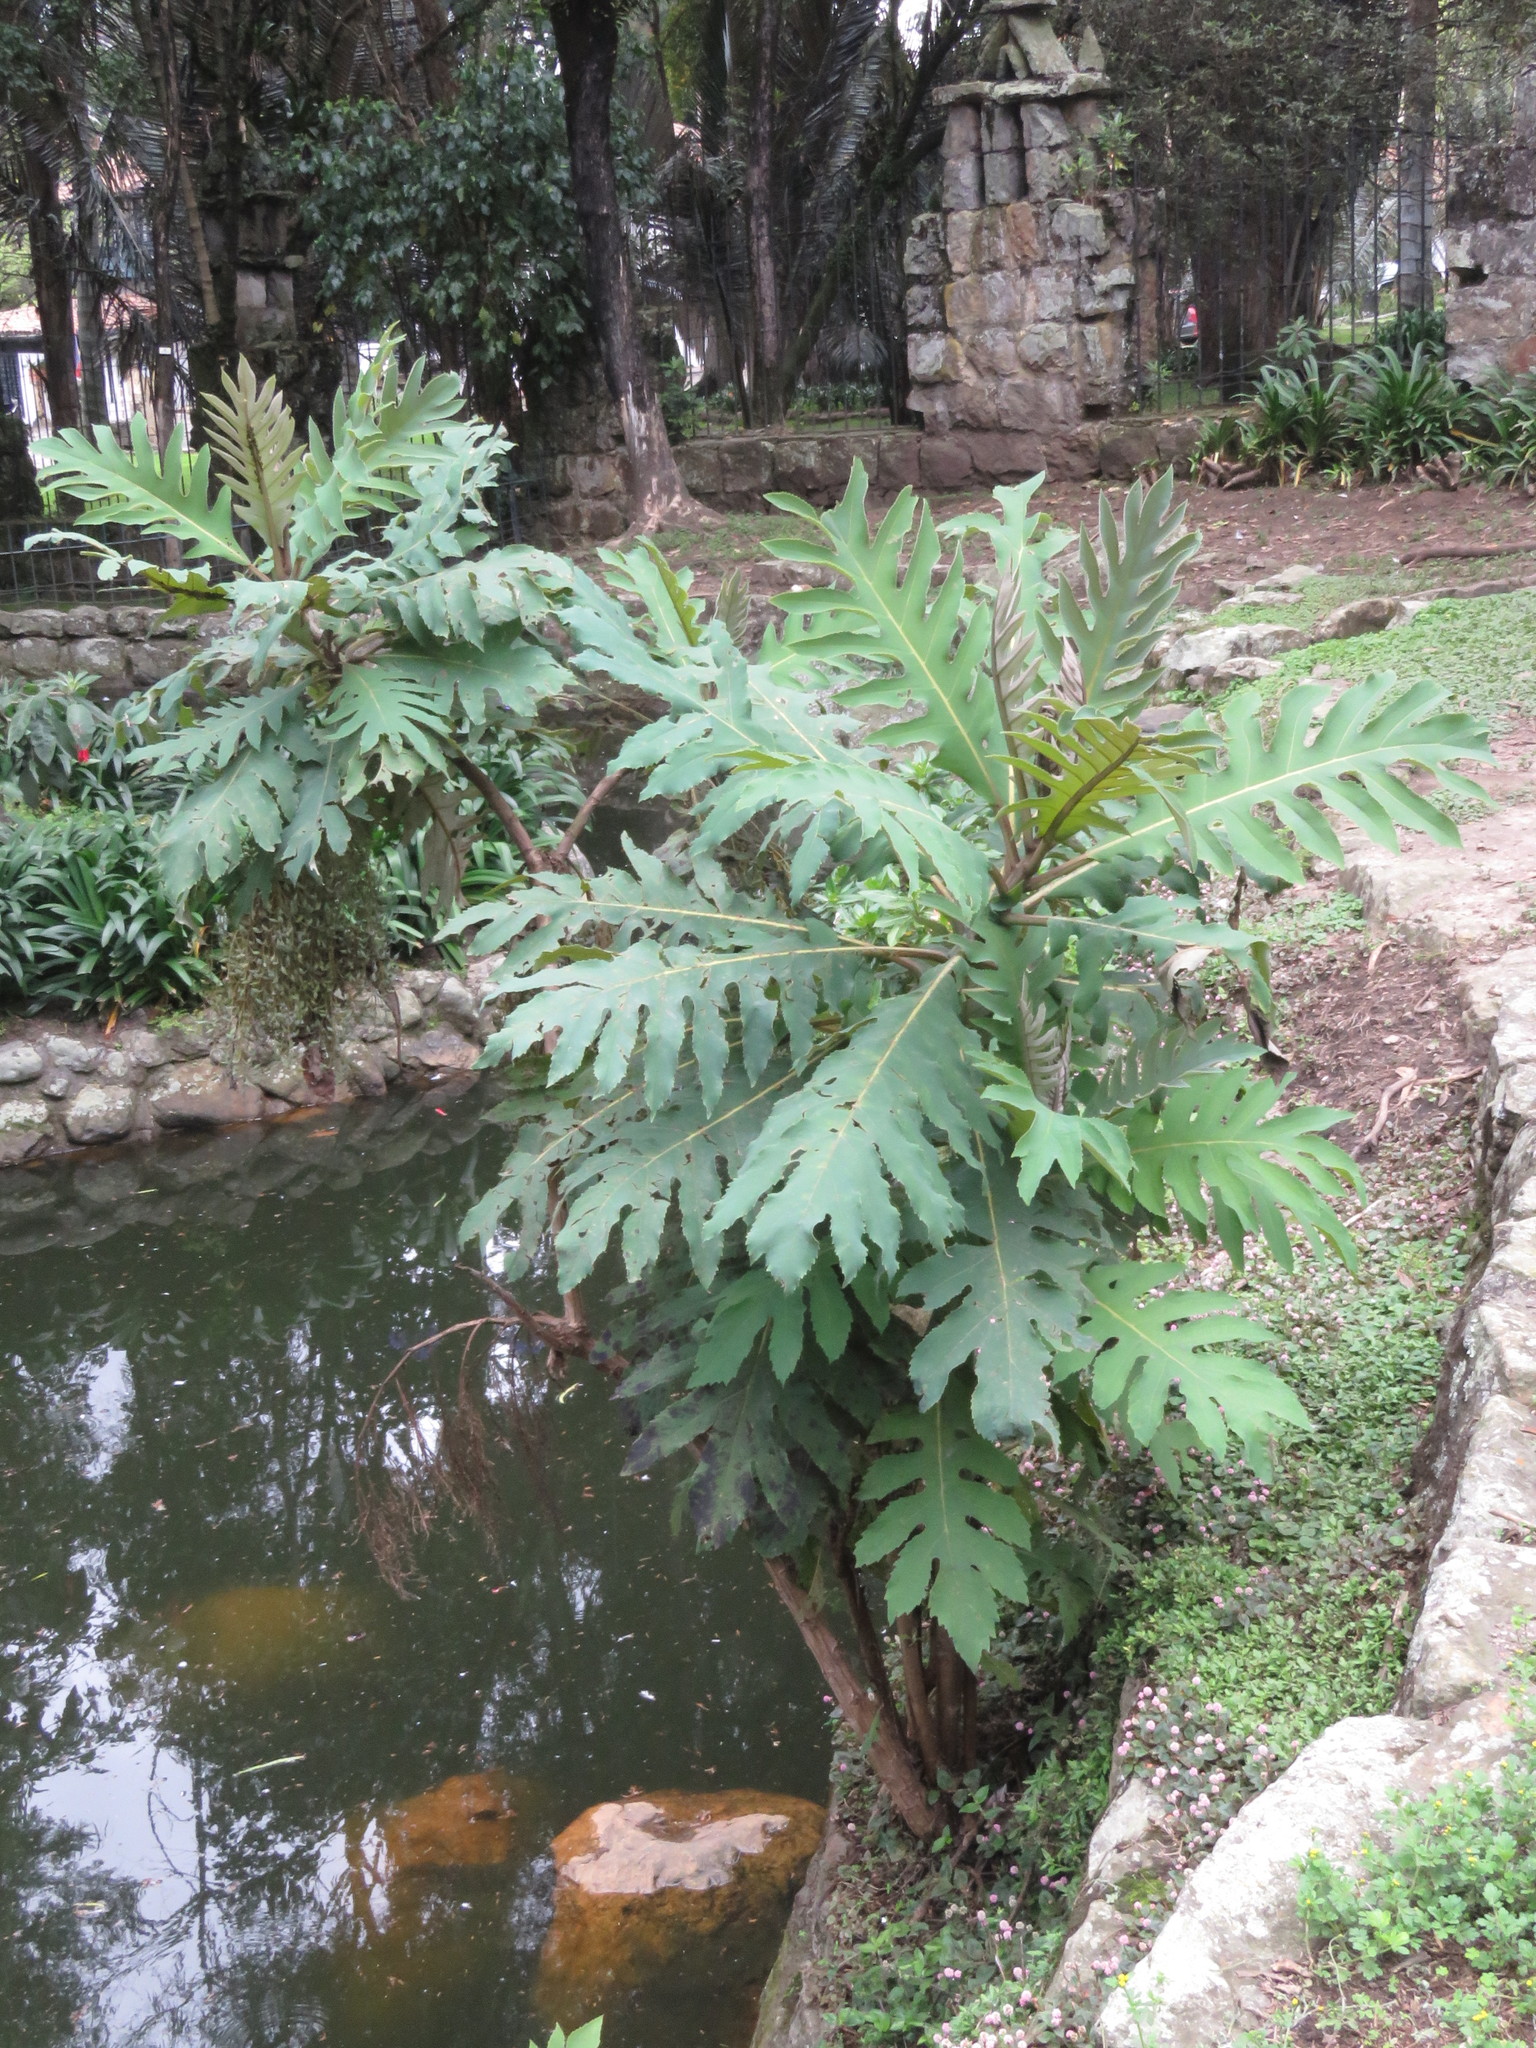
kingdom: Plantae
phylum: Tracheophyta
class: Magnoliopsida
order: Ranunculales
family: Papaveraceae
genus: Bocconia
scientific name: Bocconia frutescens
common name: Tree poppy
